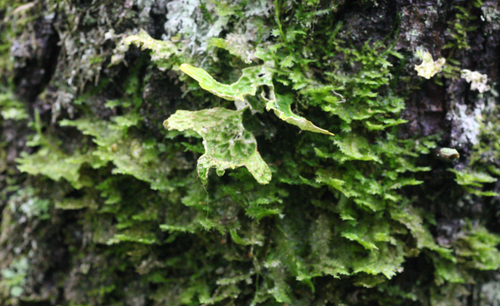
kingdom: Fungi
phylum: Ascomycota
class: Lecanoromycetes
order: Peltigerales
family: Lobariaceae
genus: Lobaria
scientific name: Lobaria pulmonaria
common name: Lungwort
